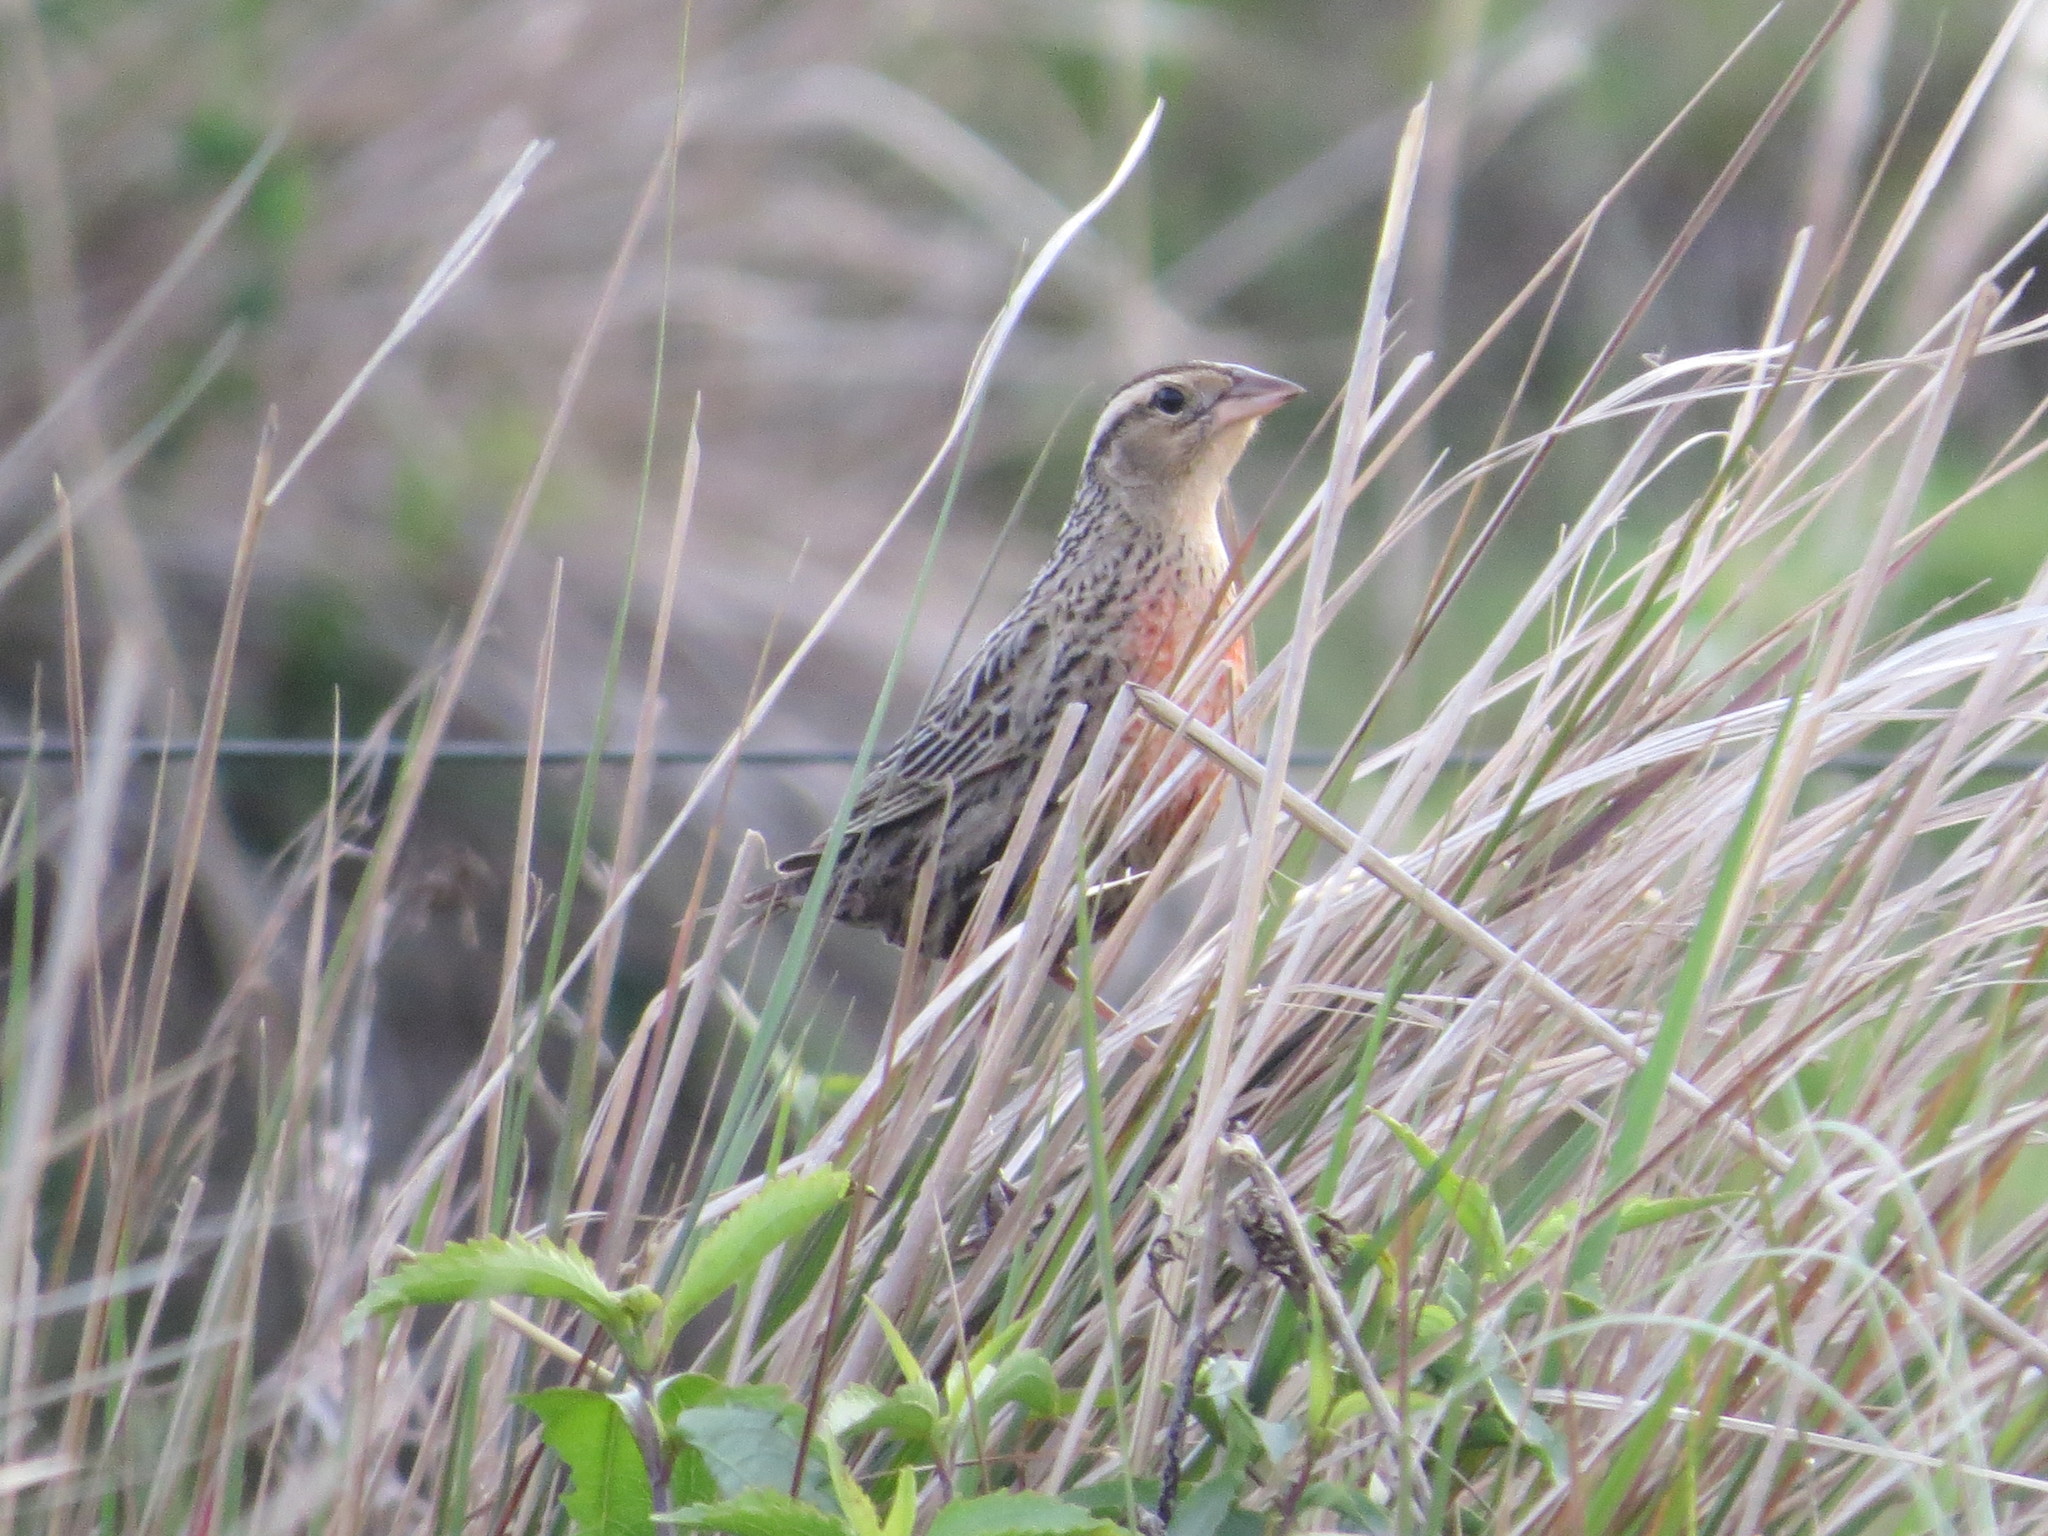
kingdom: Animalia
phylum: Chordata
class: Aves
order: Passeriformes
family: Icteridae
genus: Sturnella
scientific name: Sturnella superciliaris
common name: White-browed blackbird
